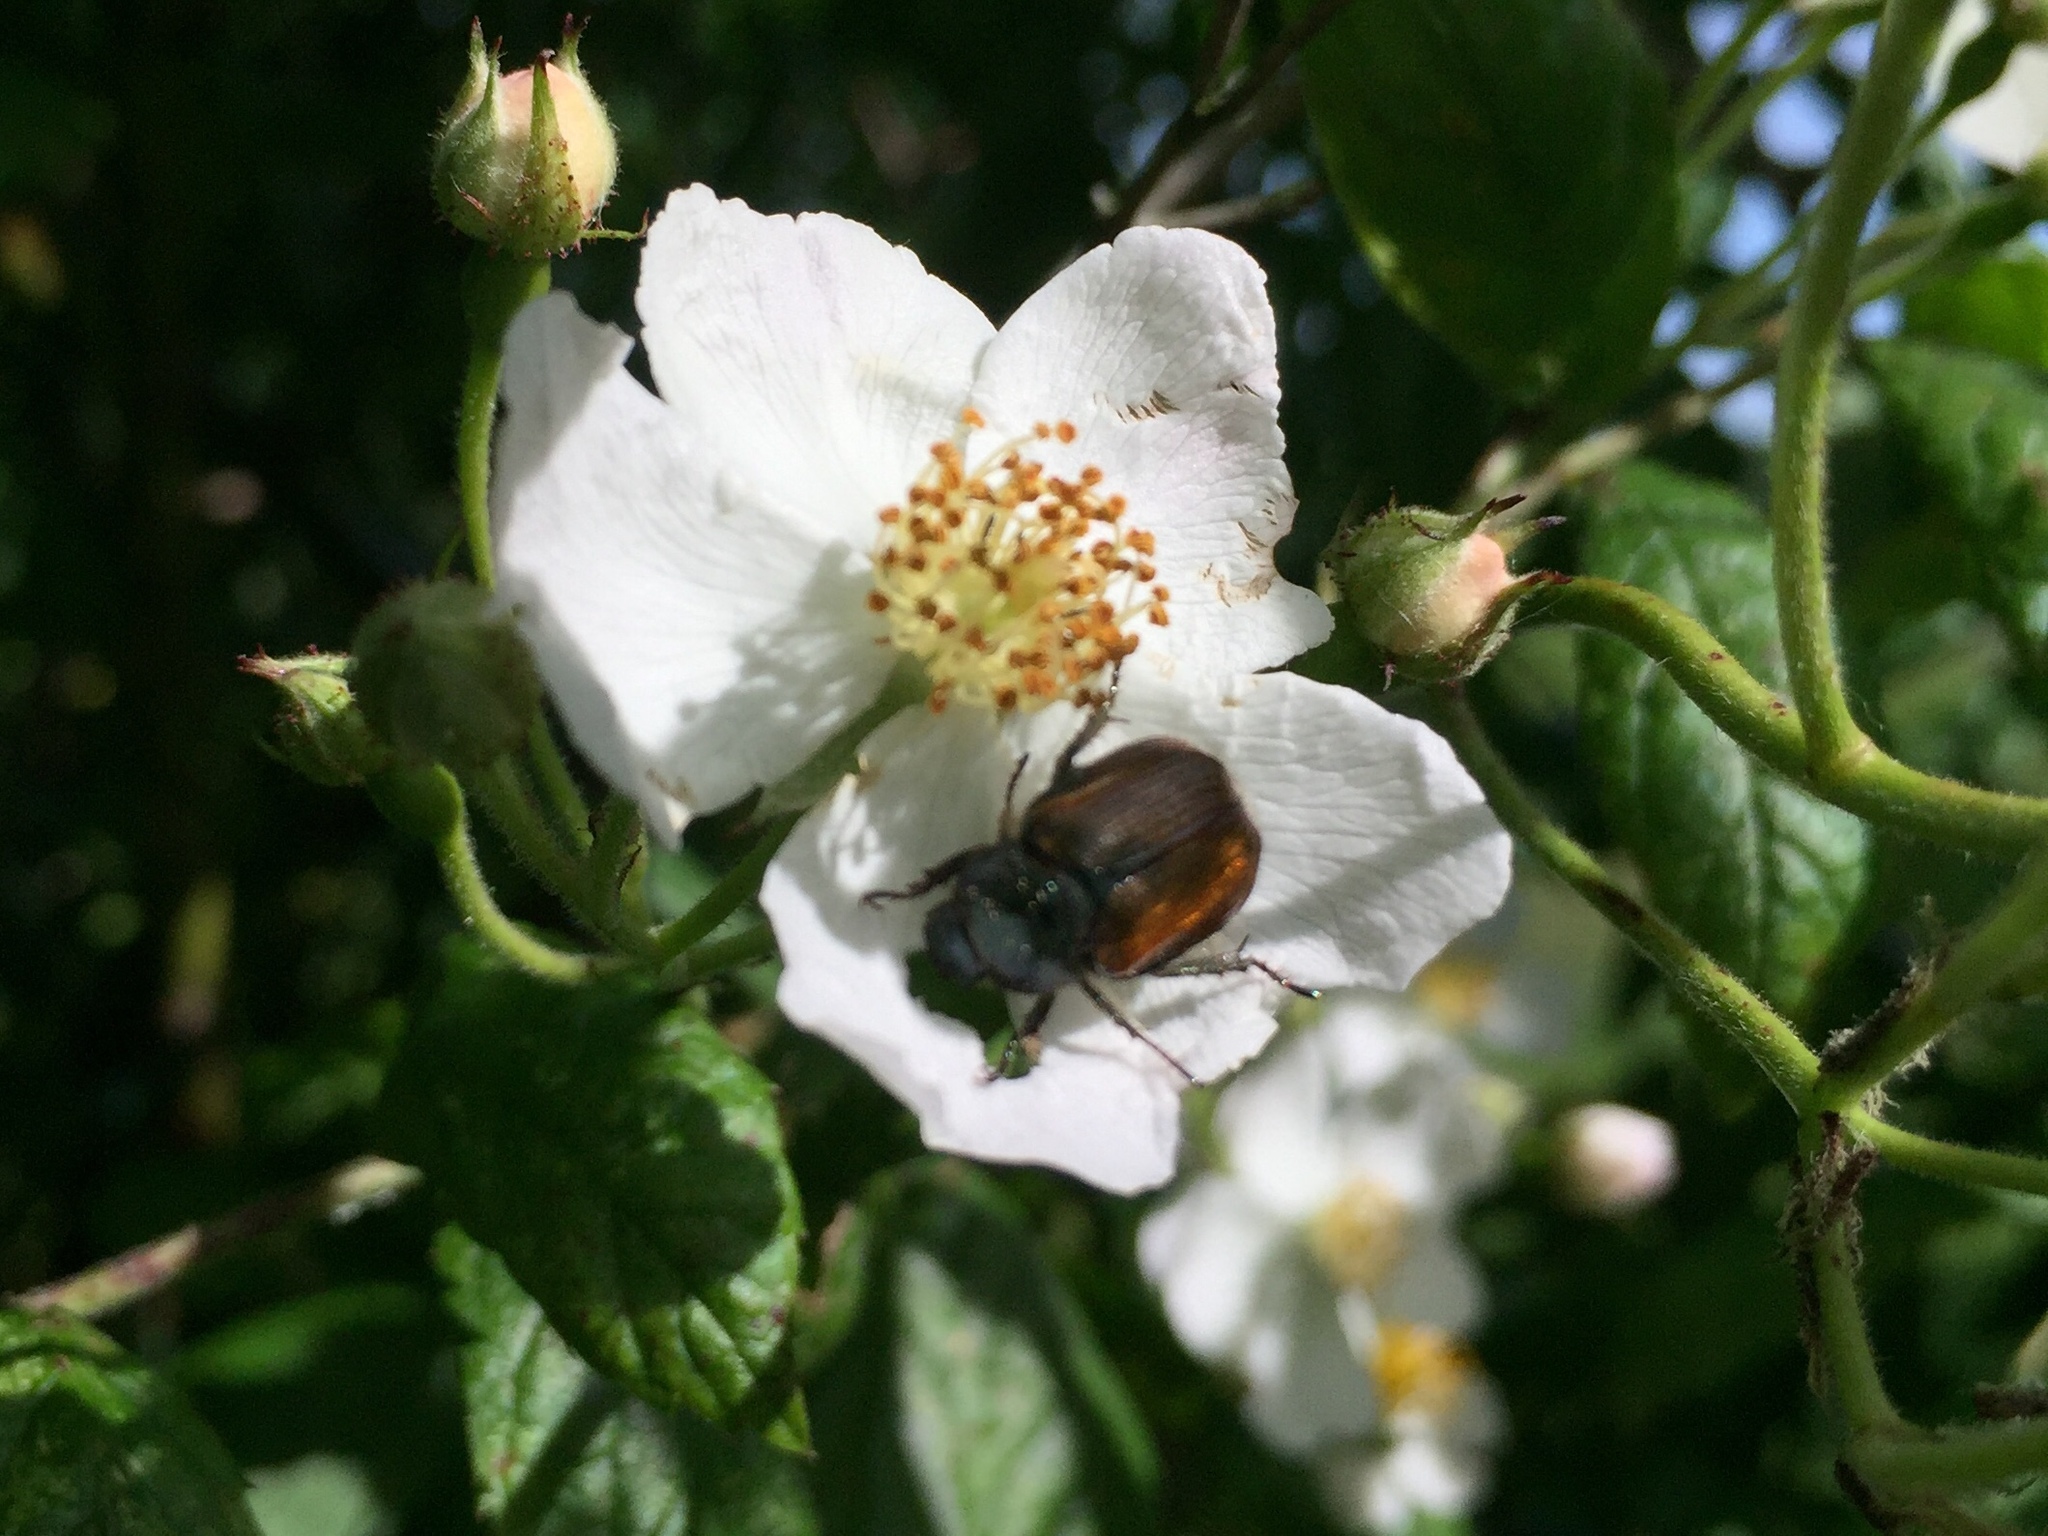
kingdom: Animalia
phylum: Arthropoda
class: Insecta
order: Coleoptera
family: Scarabaeidae
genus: Phyllopertha
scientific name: Phyllopertha horticola
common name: Garden chafer
